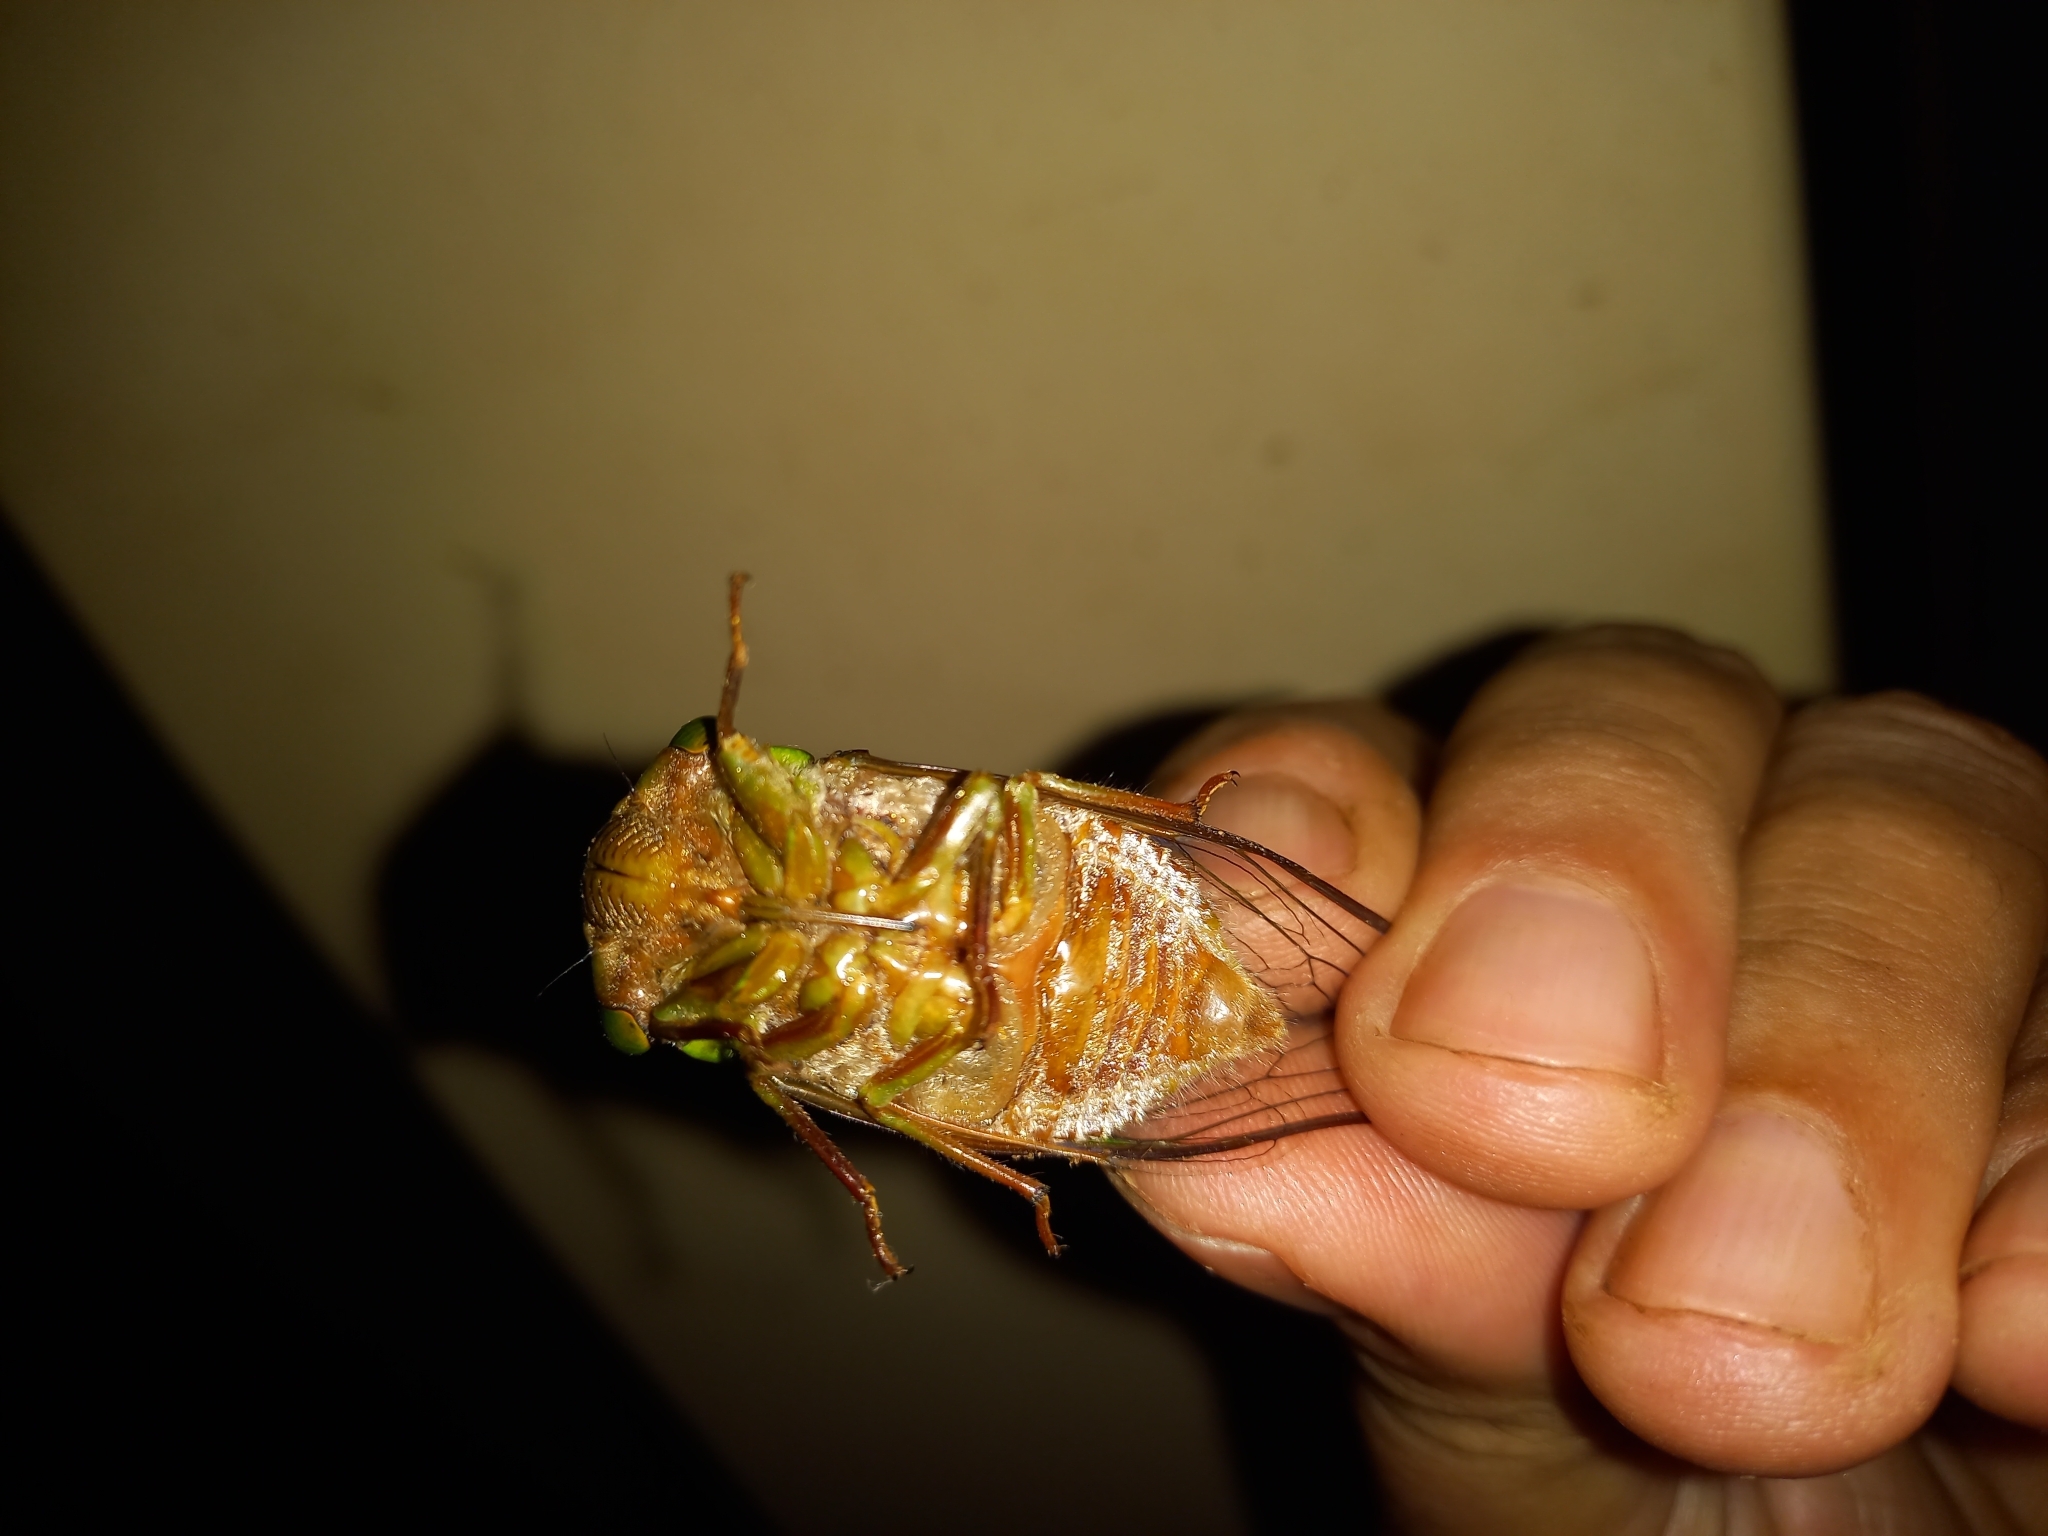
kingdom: Animalia
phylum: Arthropoda
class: Insecta
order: Hemiptera
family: Cicadidae
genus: Hemisciera
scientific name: Hemisciera maculipennis
